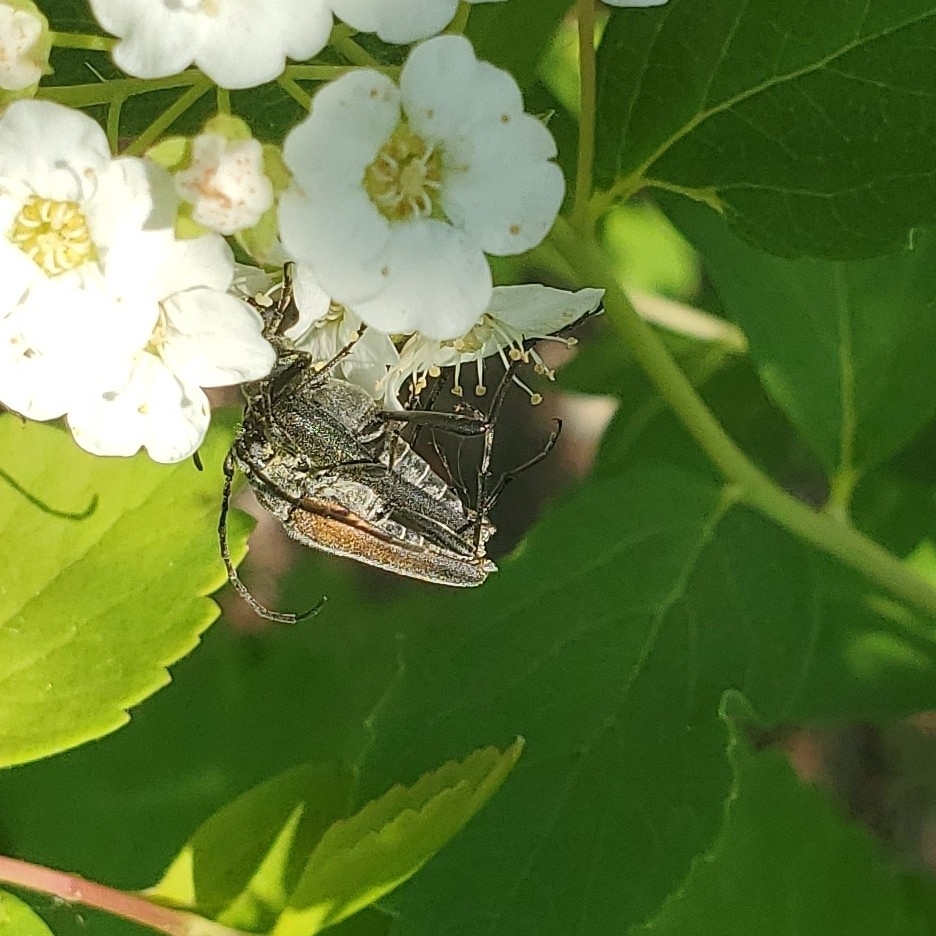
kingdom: Animalia
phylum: Arthropoda
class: Insecta
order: Coleoptera
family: Cerambycidae
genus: Trachysida
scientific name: Trachysida mutabilis
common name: Changeable flower longhorn
